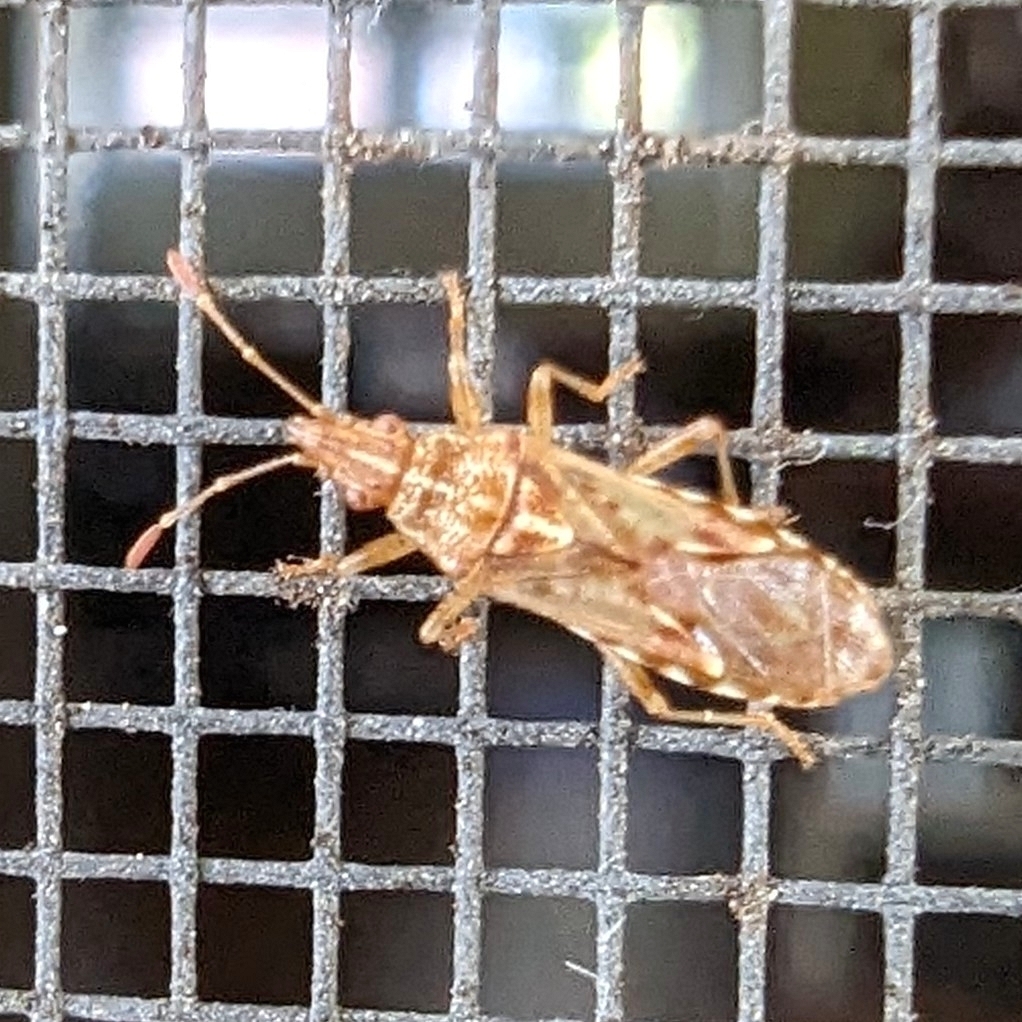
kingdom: Animalia
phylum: Arthropoda
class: Insecta
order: Hemiptera
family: Lygaeidae
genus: Belonochilus
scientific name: Belonochilus numenius
